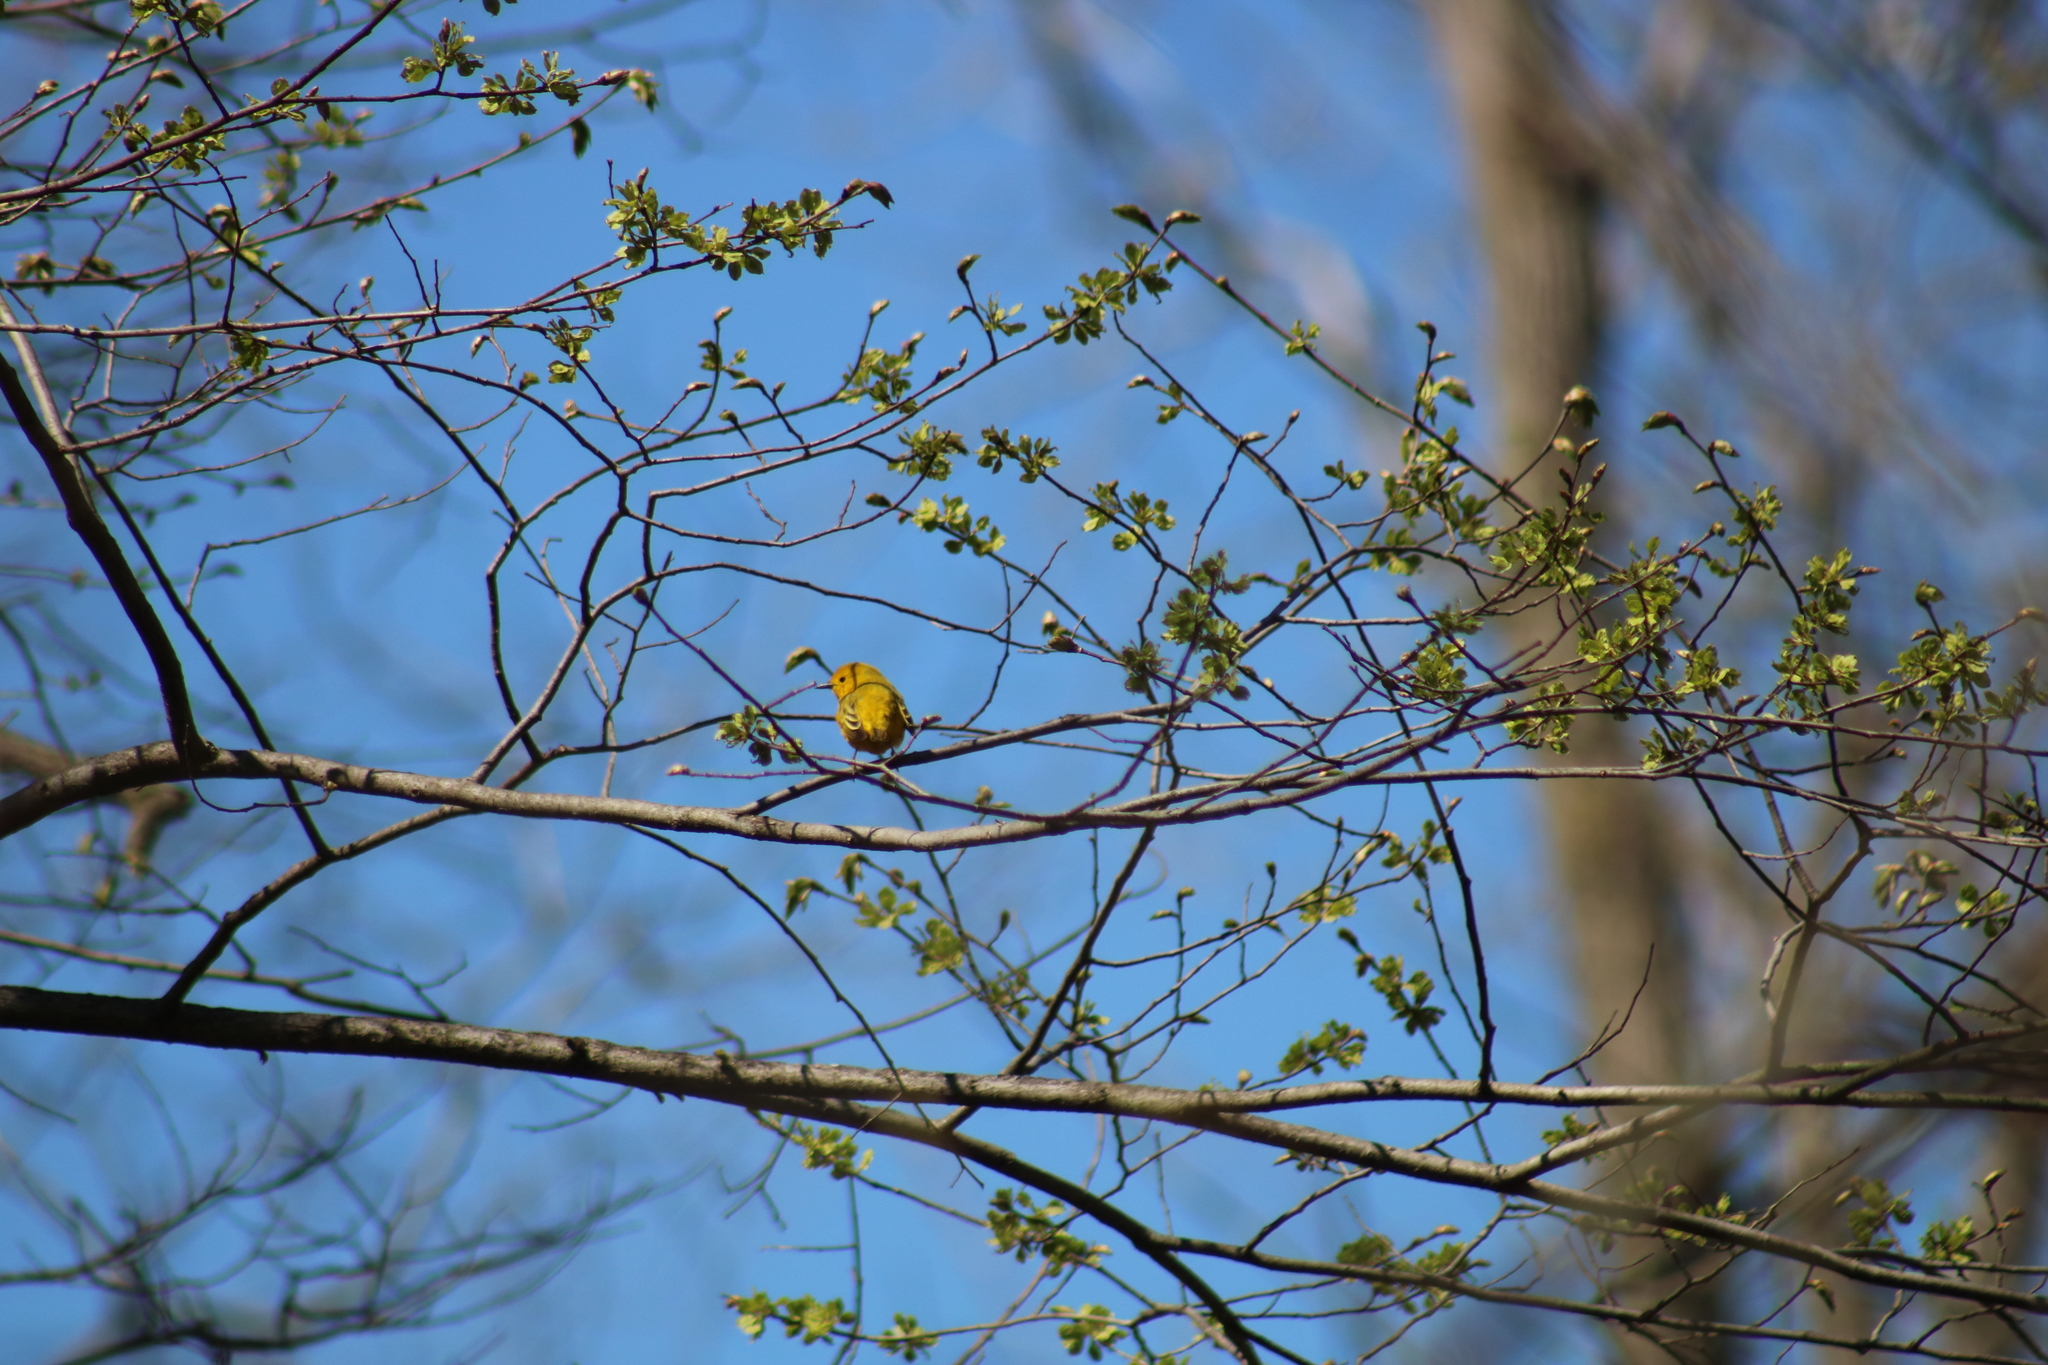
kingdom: Animalia
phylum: Chordata
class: Aves
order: Passeriformes
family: Parulidae
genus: Setophaga
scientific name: Setophaga petechia
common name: Yellow warbler
